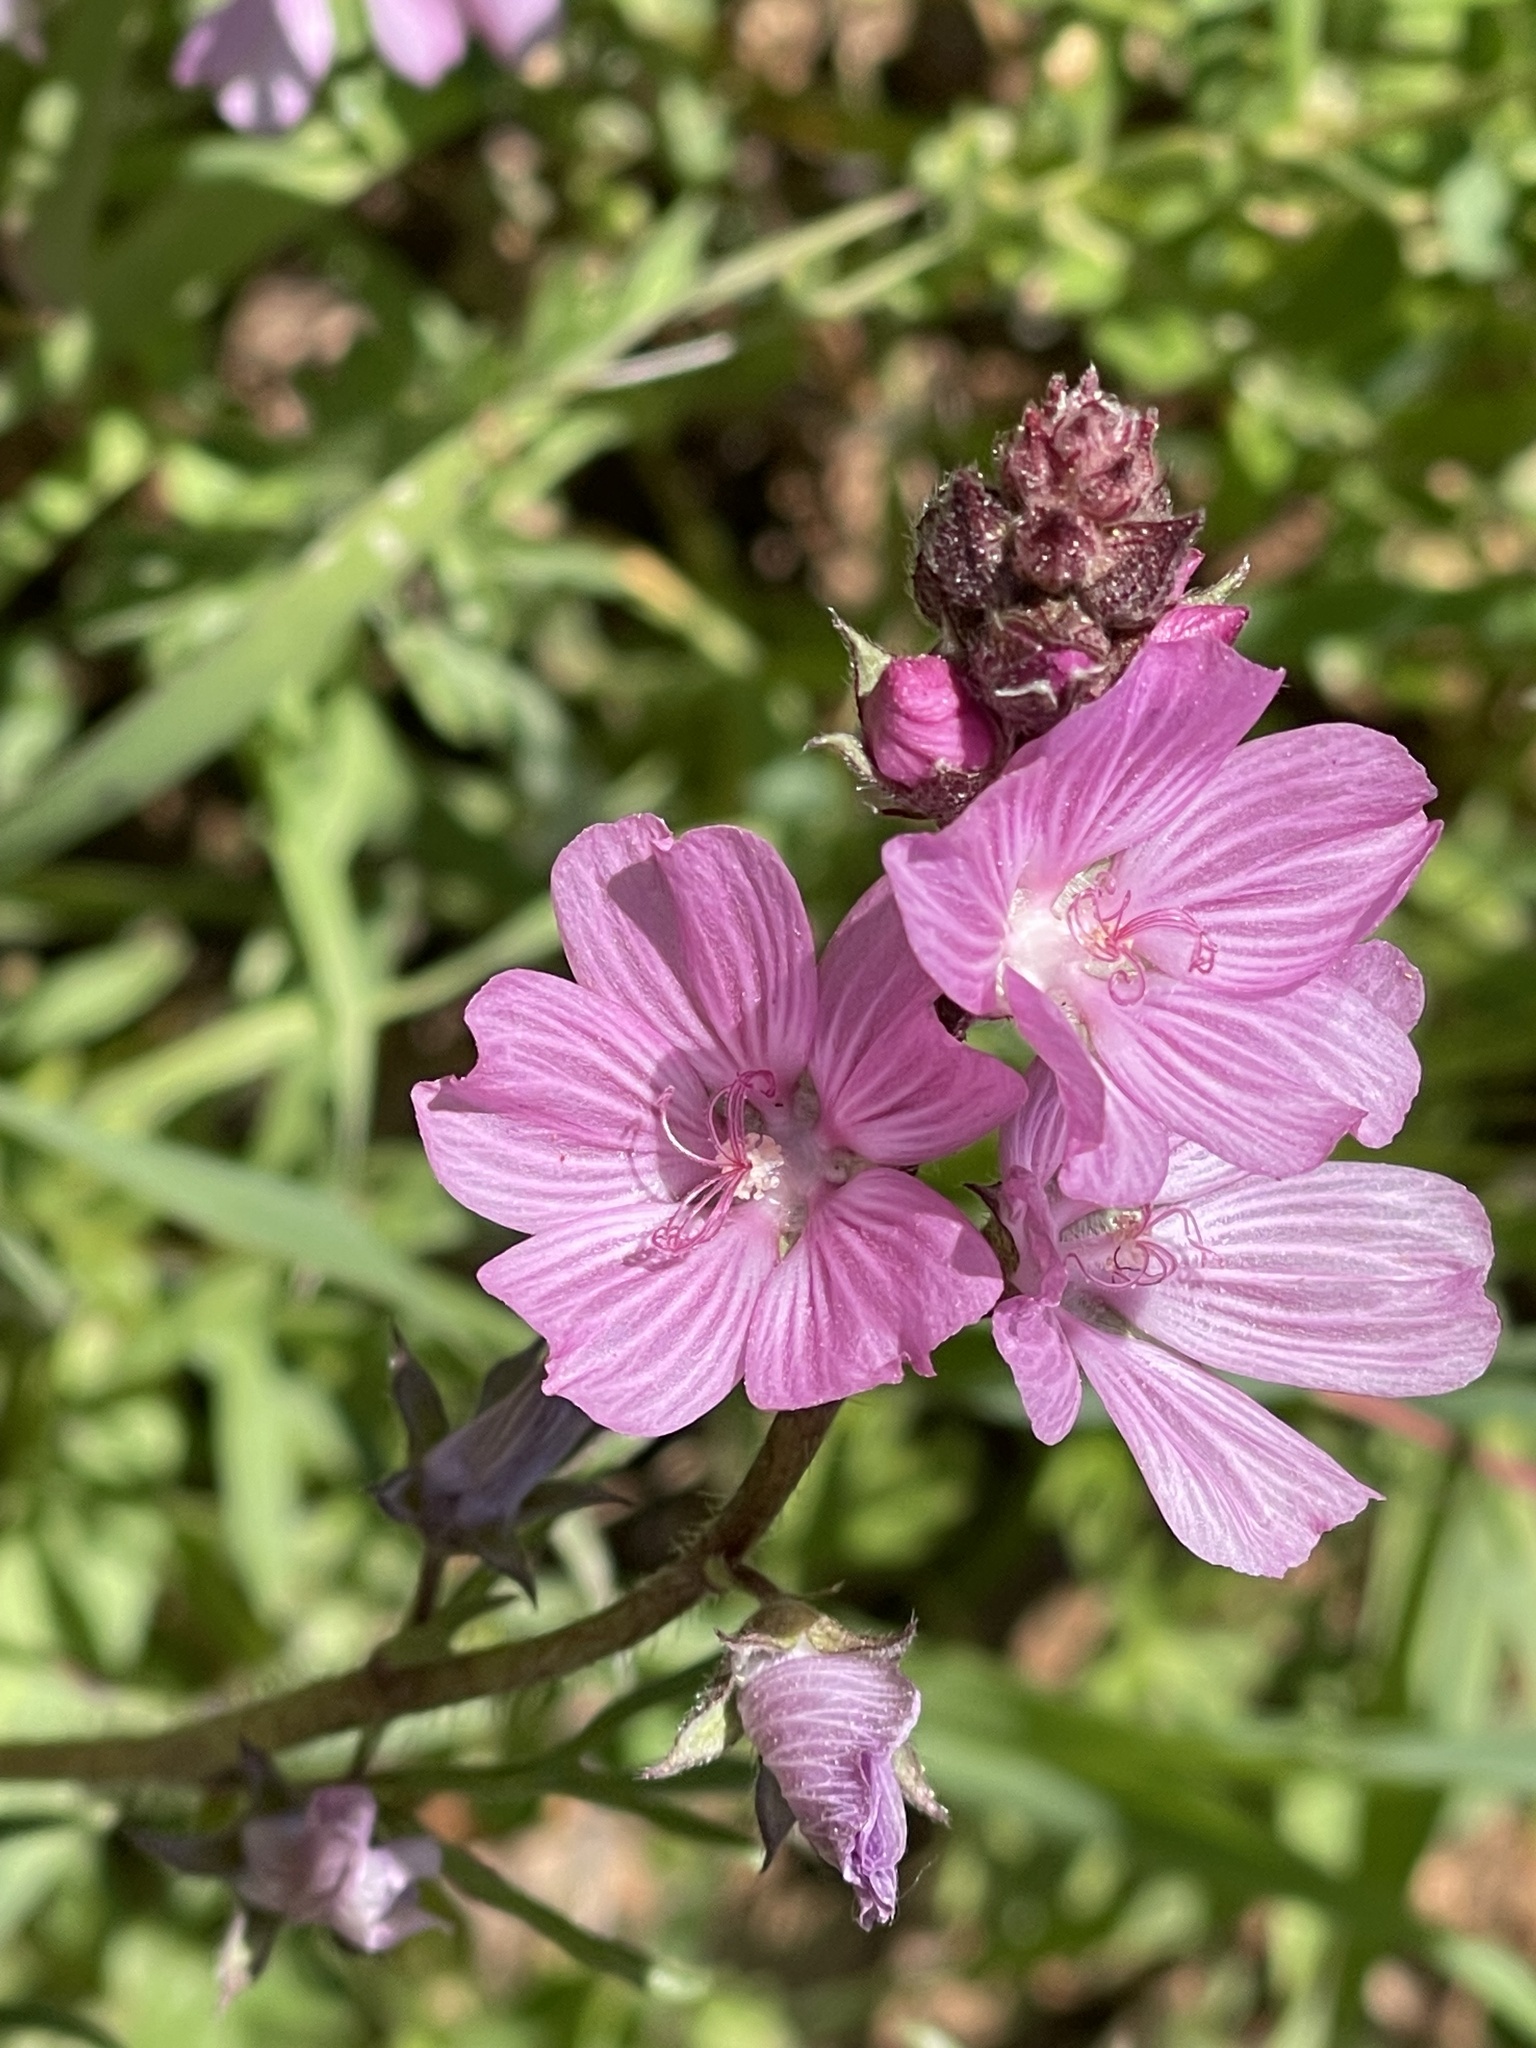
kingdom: Plantae
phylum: Tracheophyta
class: Magnoliopsida
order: Malvales
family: Malvaceae
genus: Sidalcea
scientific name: Sidalcea malviflora
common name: Greek mallow
